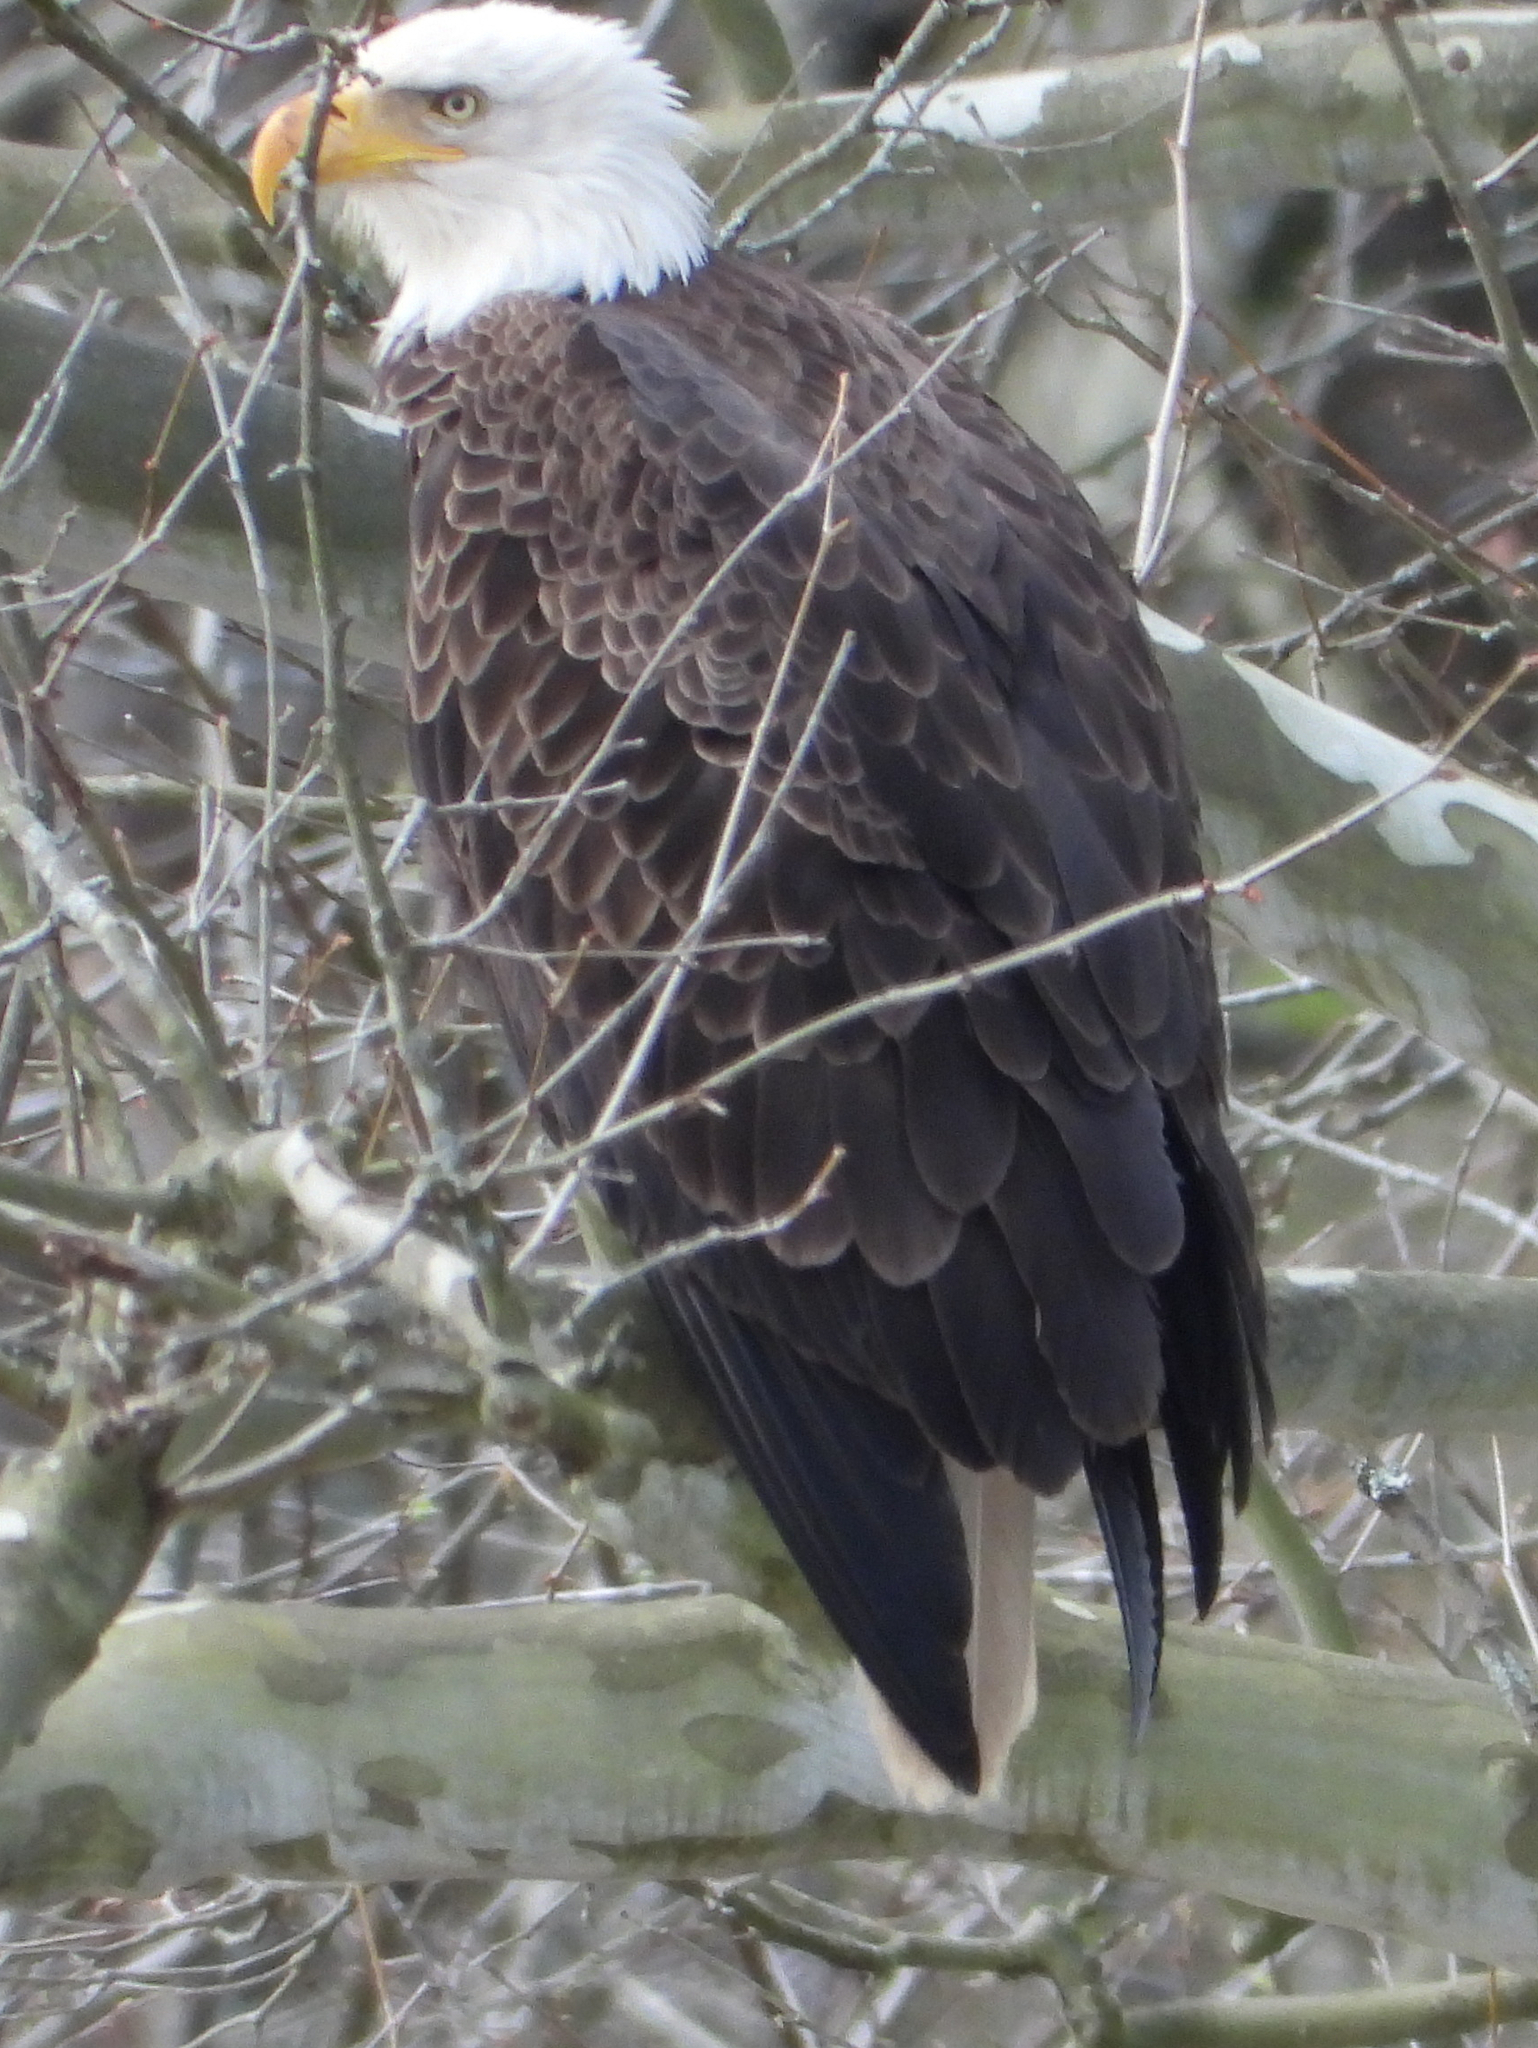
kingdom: Animalia
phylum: Chordata
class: Aves
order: Accipitriformes
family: Accipitridae
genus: Haliaeetus
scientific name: Haliaeetus leucocephalus
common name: Bald eagle
